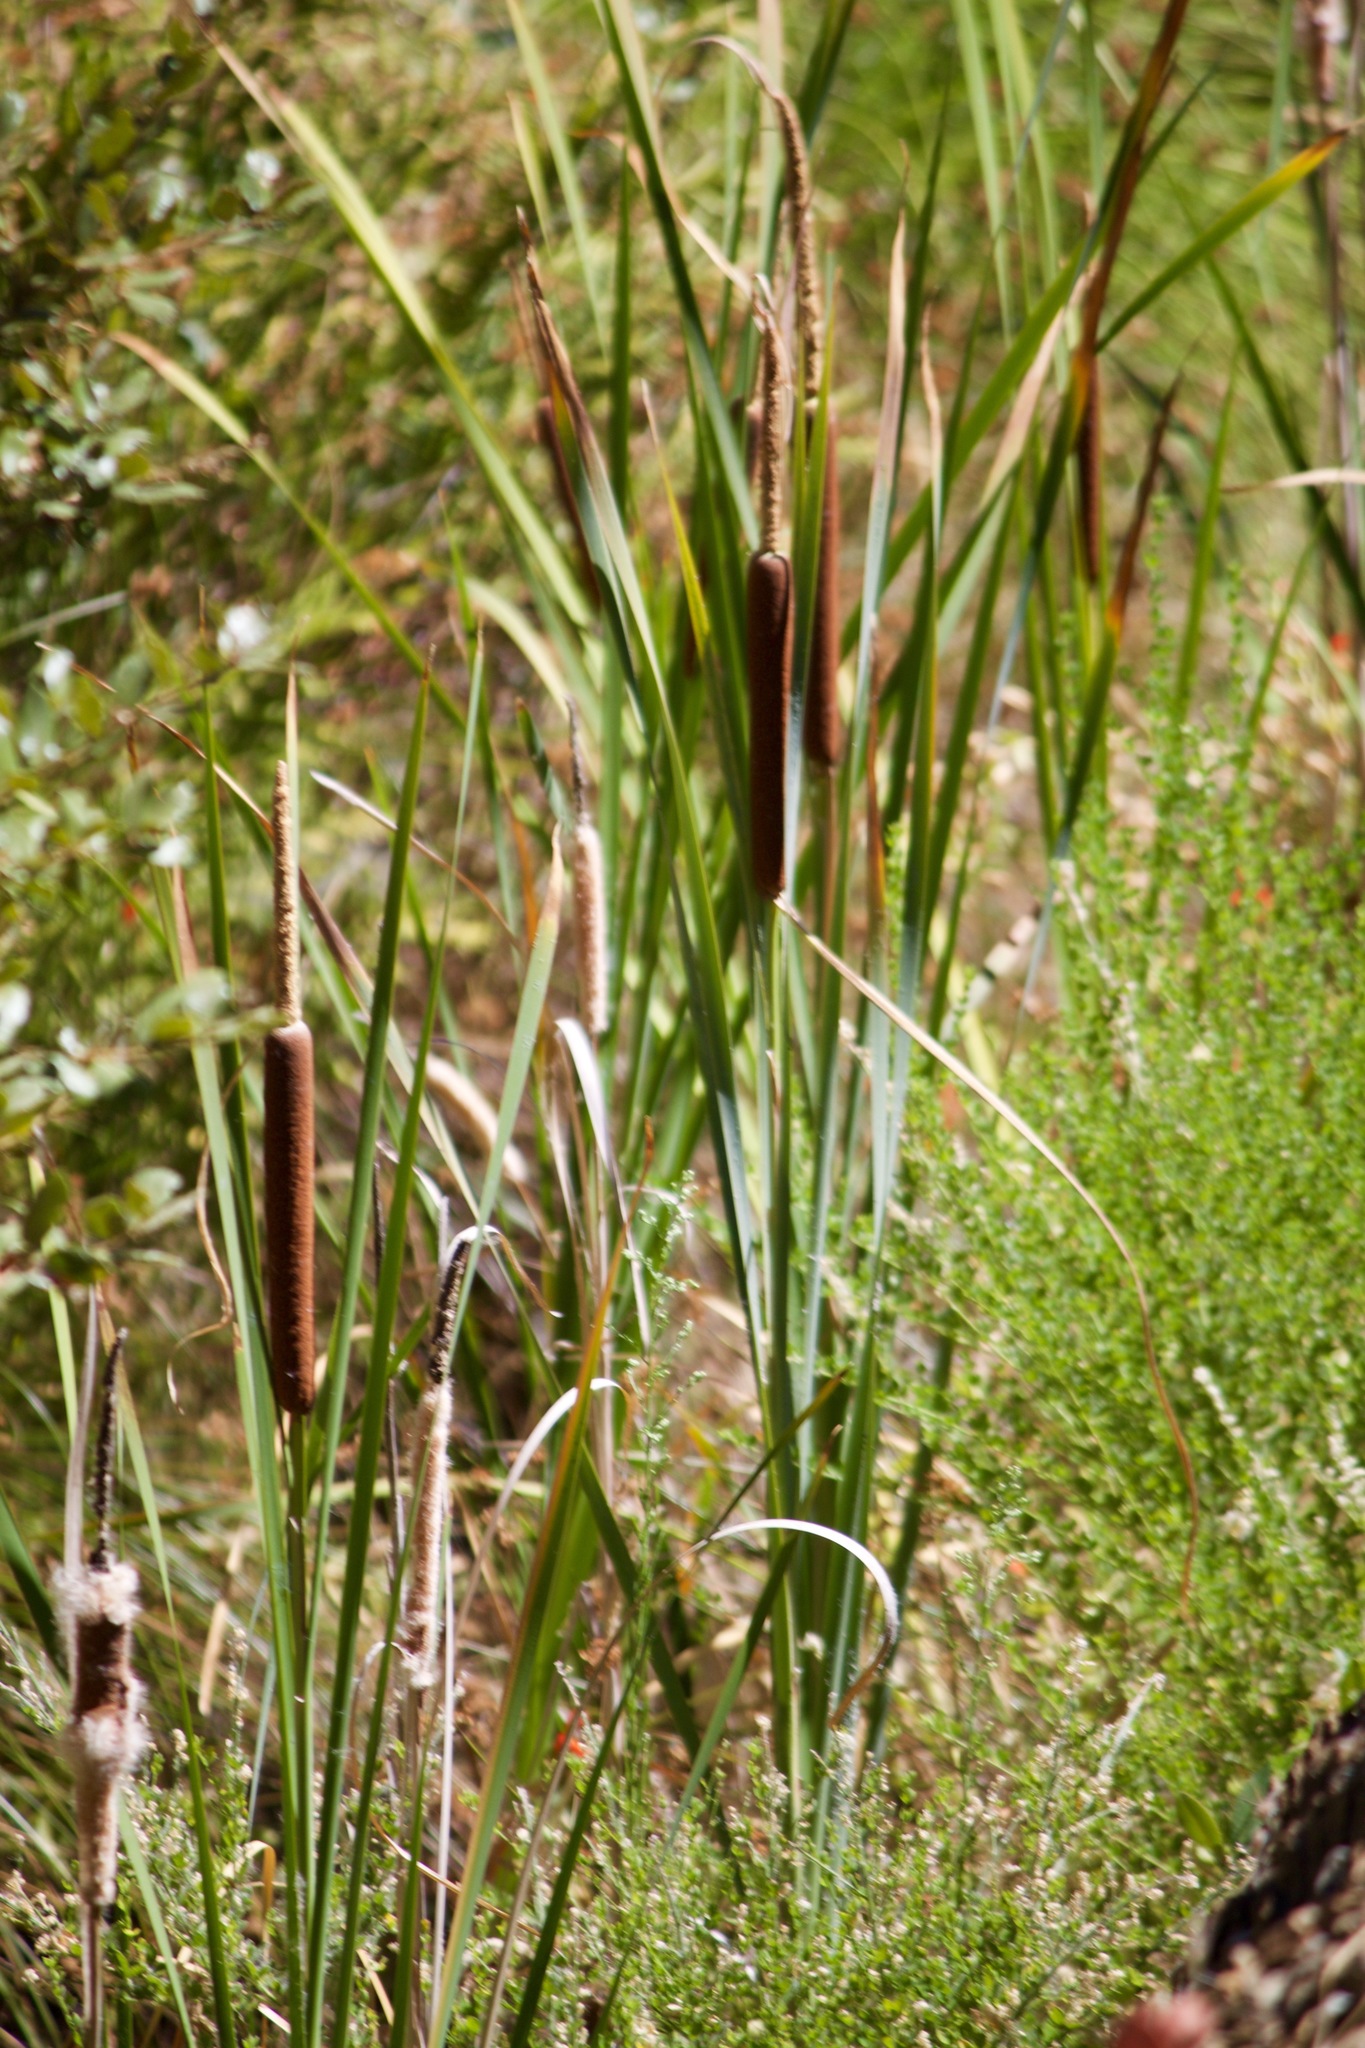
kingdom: Plantae
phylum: Tracheophyta
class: Liliopsida
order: Poales
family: Typhaceae
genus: Typha
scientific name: Typha latifolia
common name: Broadleaf cattail
